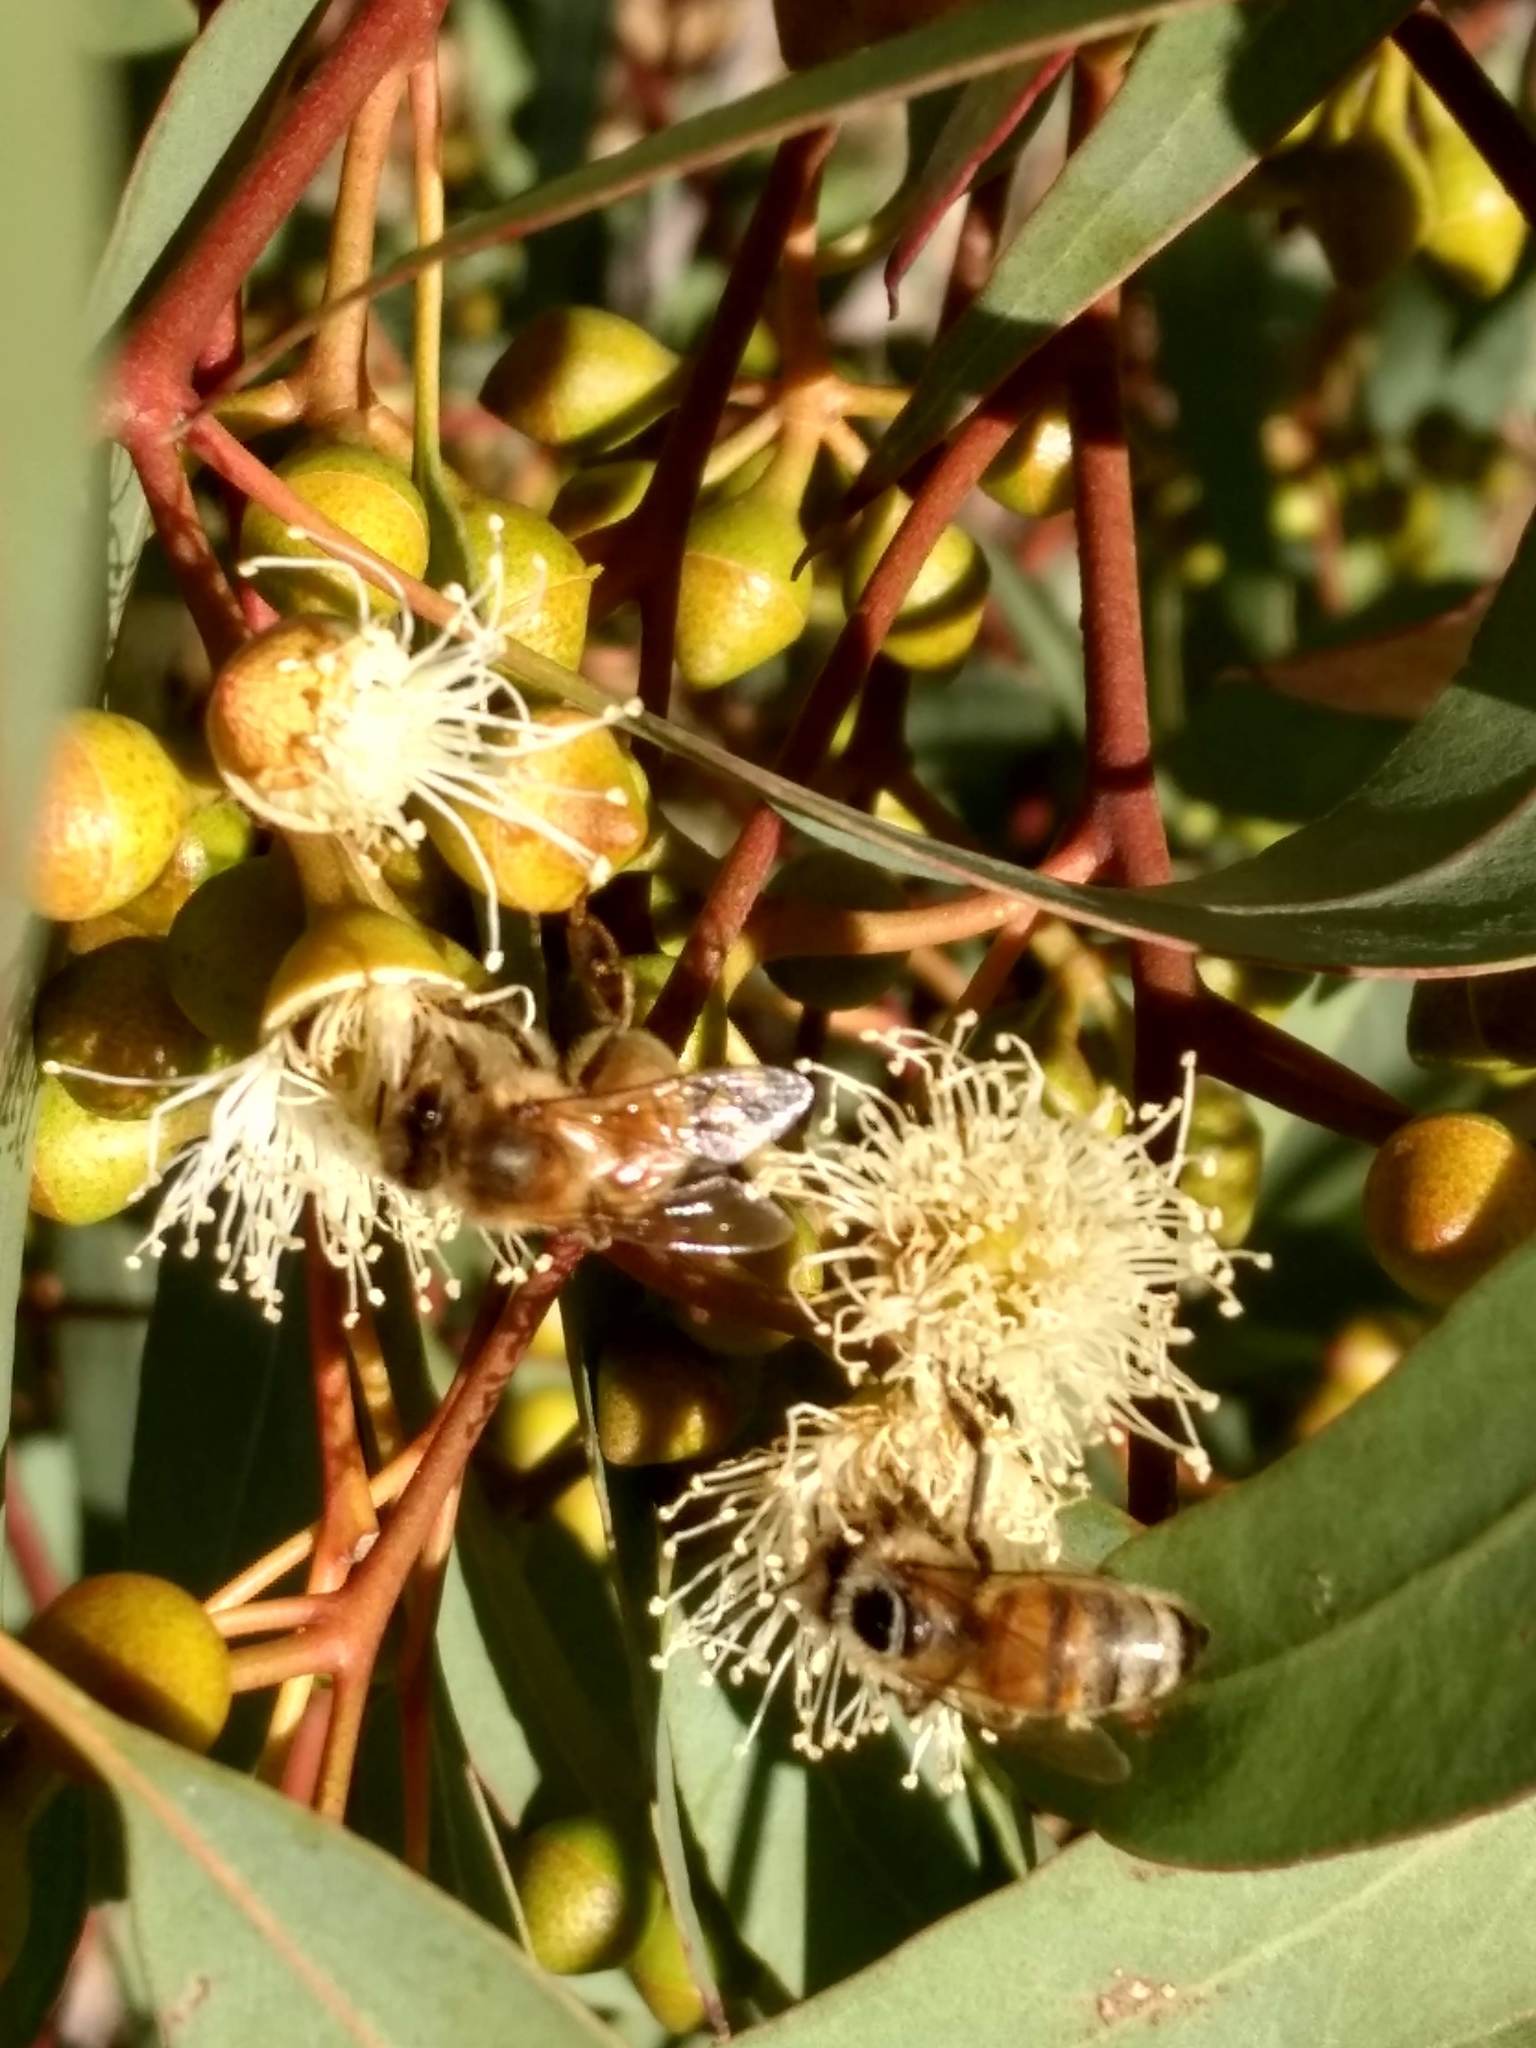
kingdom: Animalia
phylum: Arthropoda
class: Insecta
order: Hymenoptera
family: Apidae
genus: Apis
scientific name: Apis mellifera
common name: Honey bee
